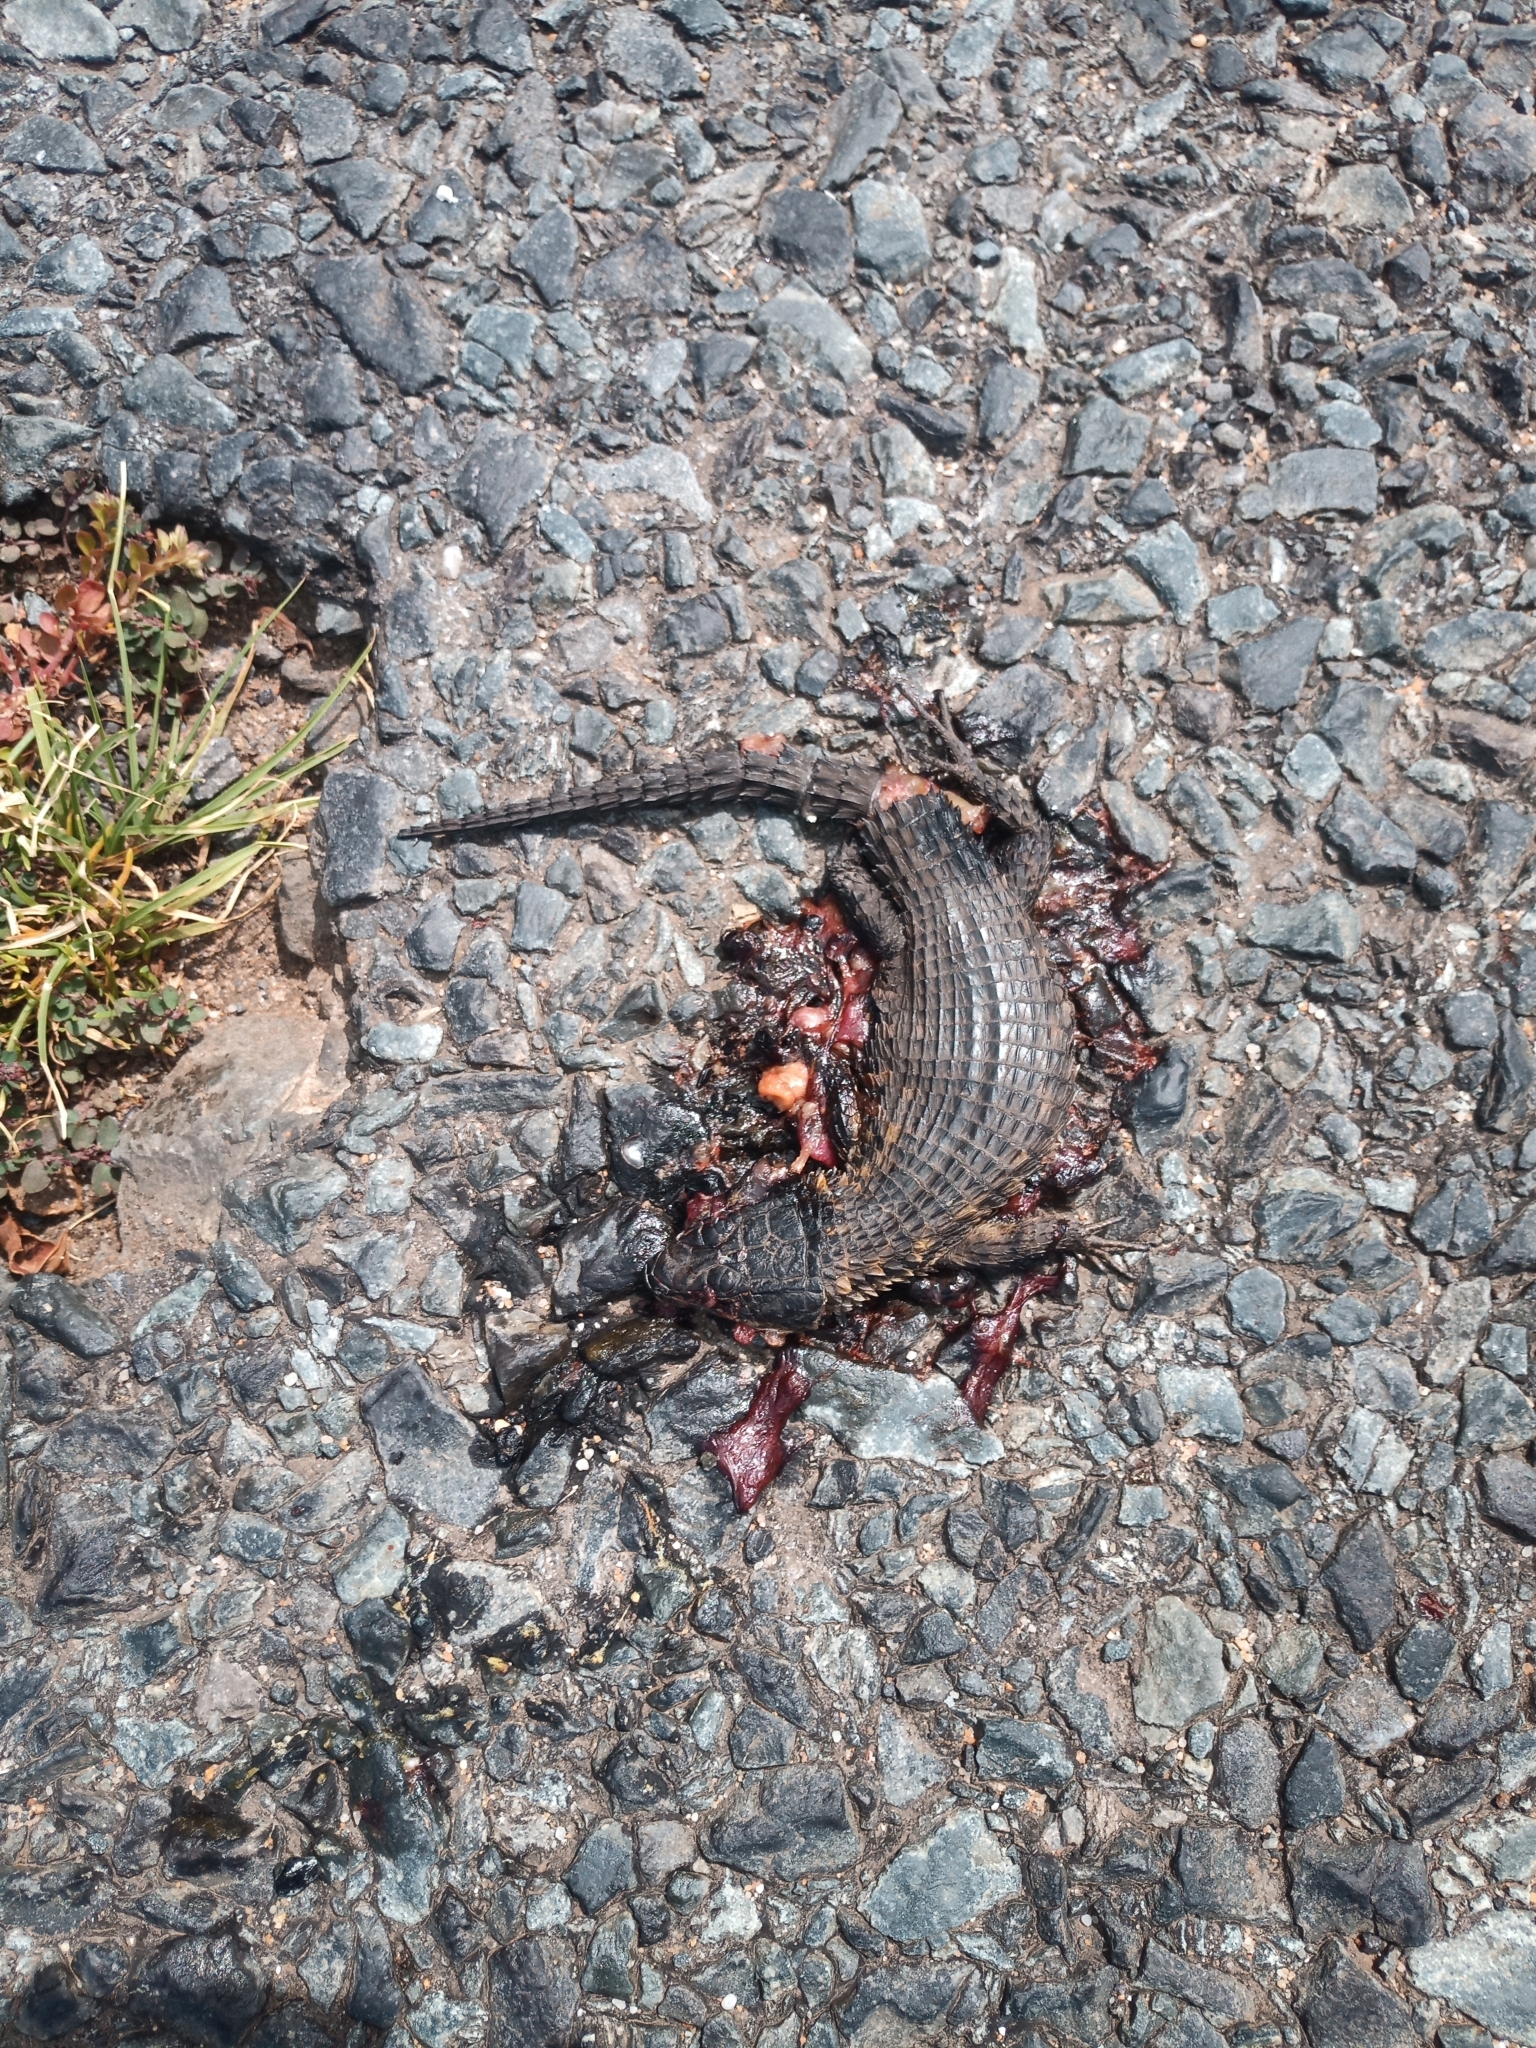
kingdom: Animalia
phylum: Chordata
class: Squamata
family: Cordylidae
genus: Cordylus
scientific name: Cordylus niger
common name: Black girdled lizard
